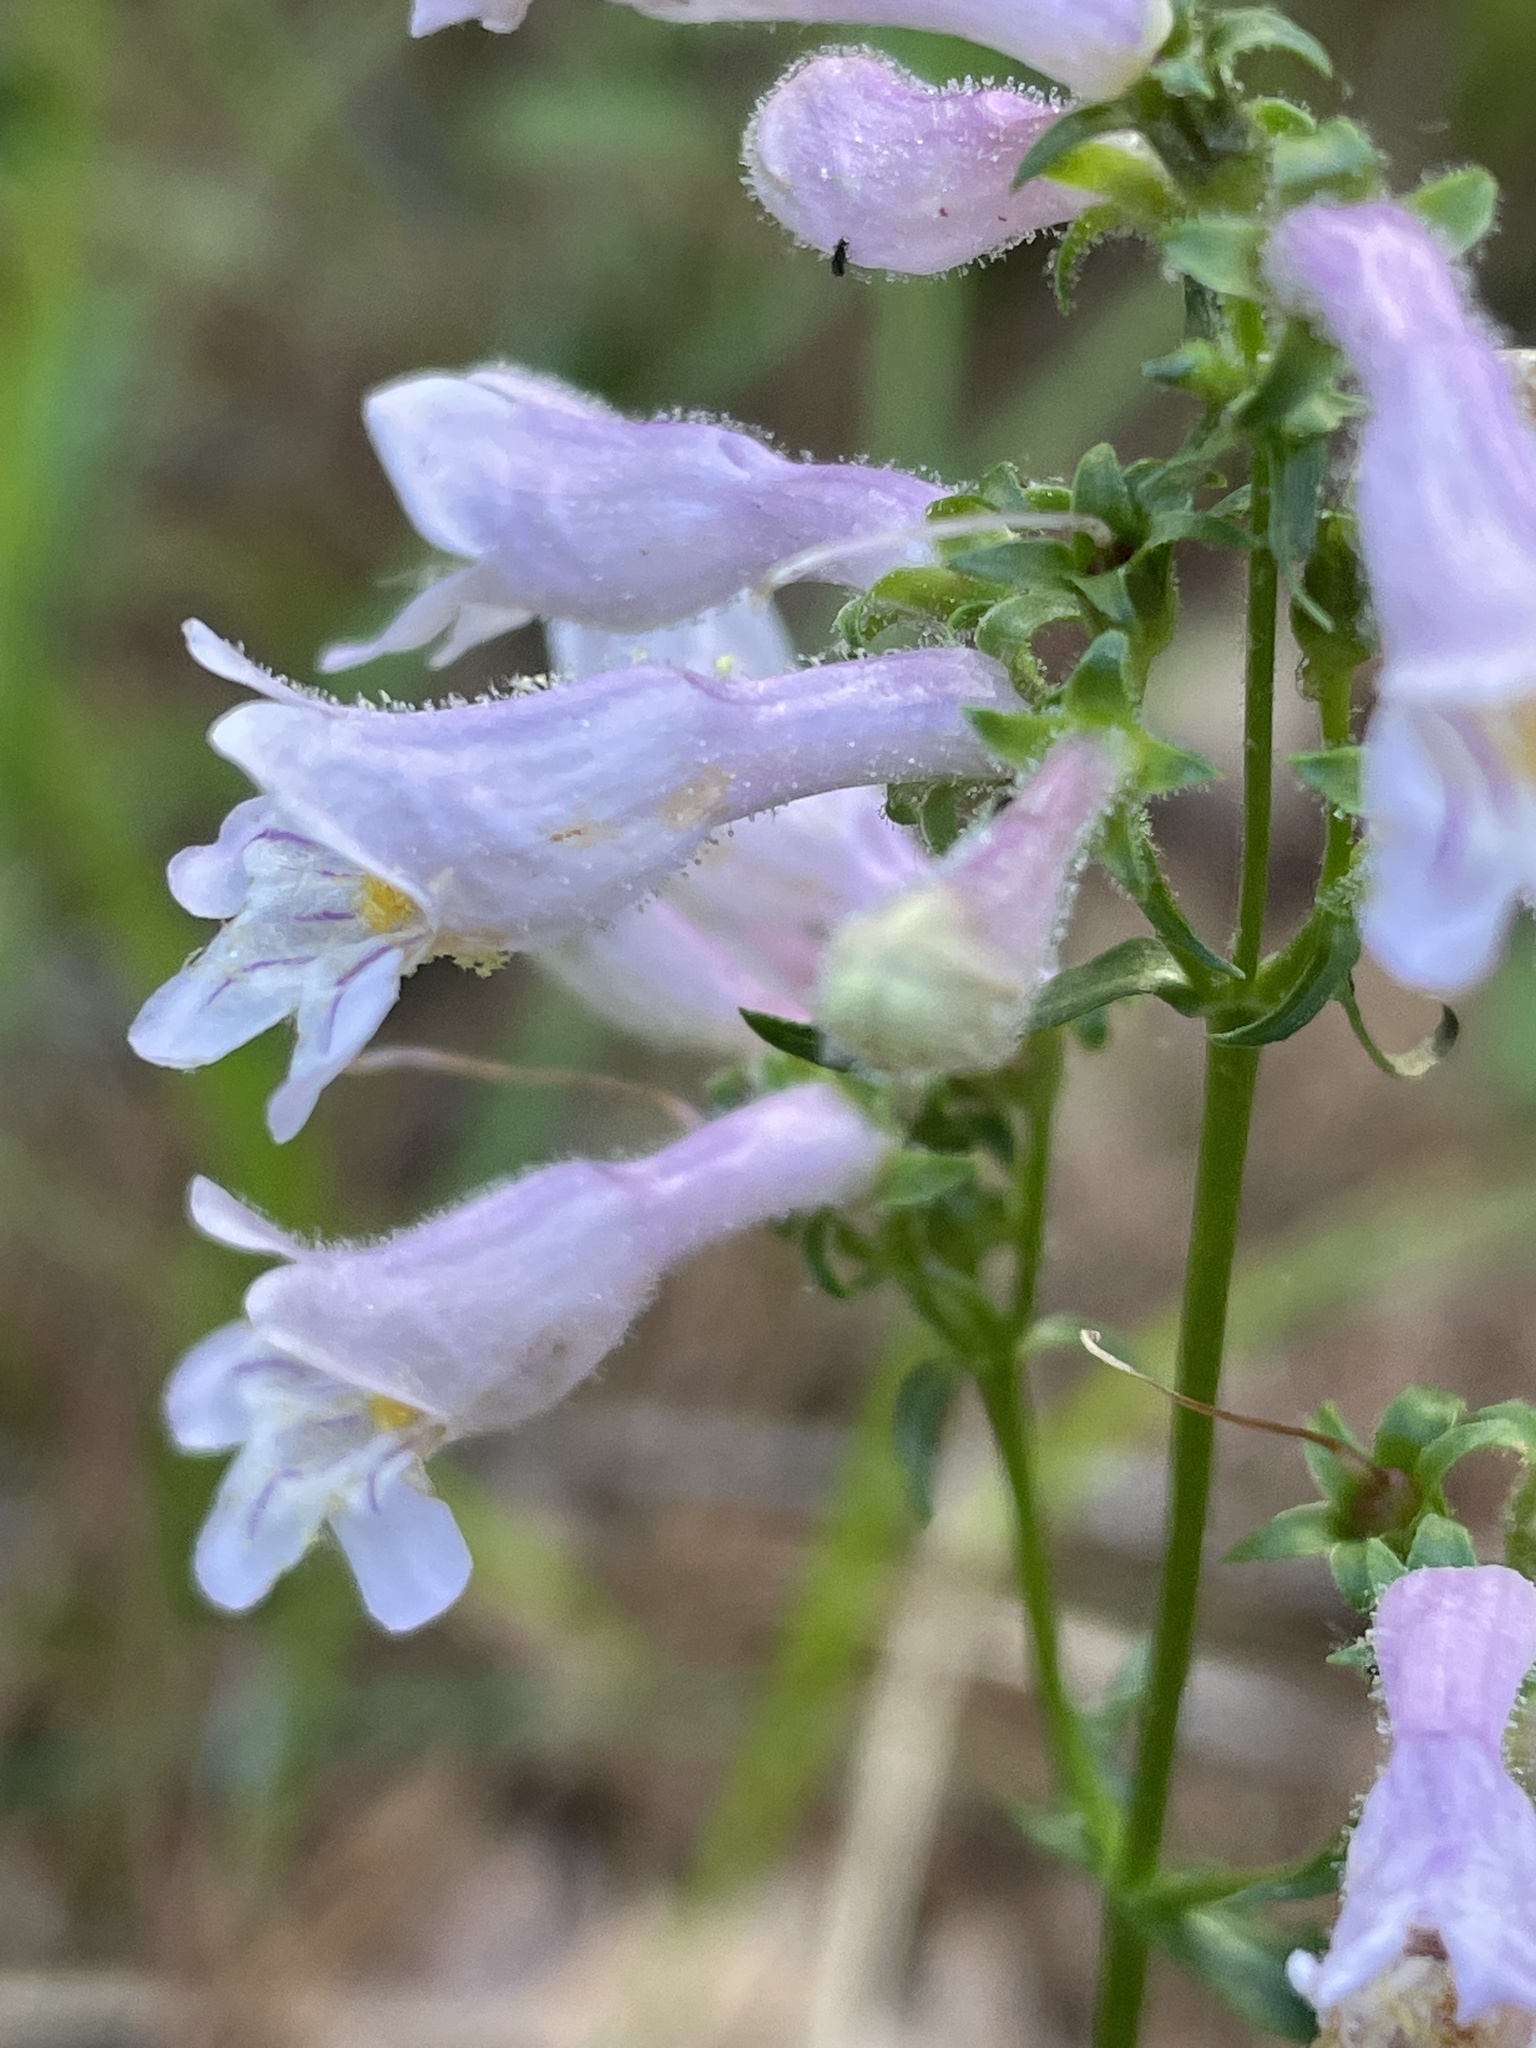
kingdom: Plantae
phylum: Tracheophyta
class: Magnoliopsida
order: Lamiales
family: Plantaginaceae
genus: Penstemon
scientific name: Penstemon laevigatus
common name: Eastern beardtongue
